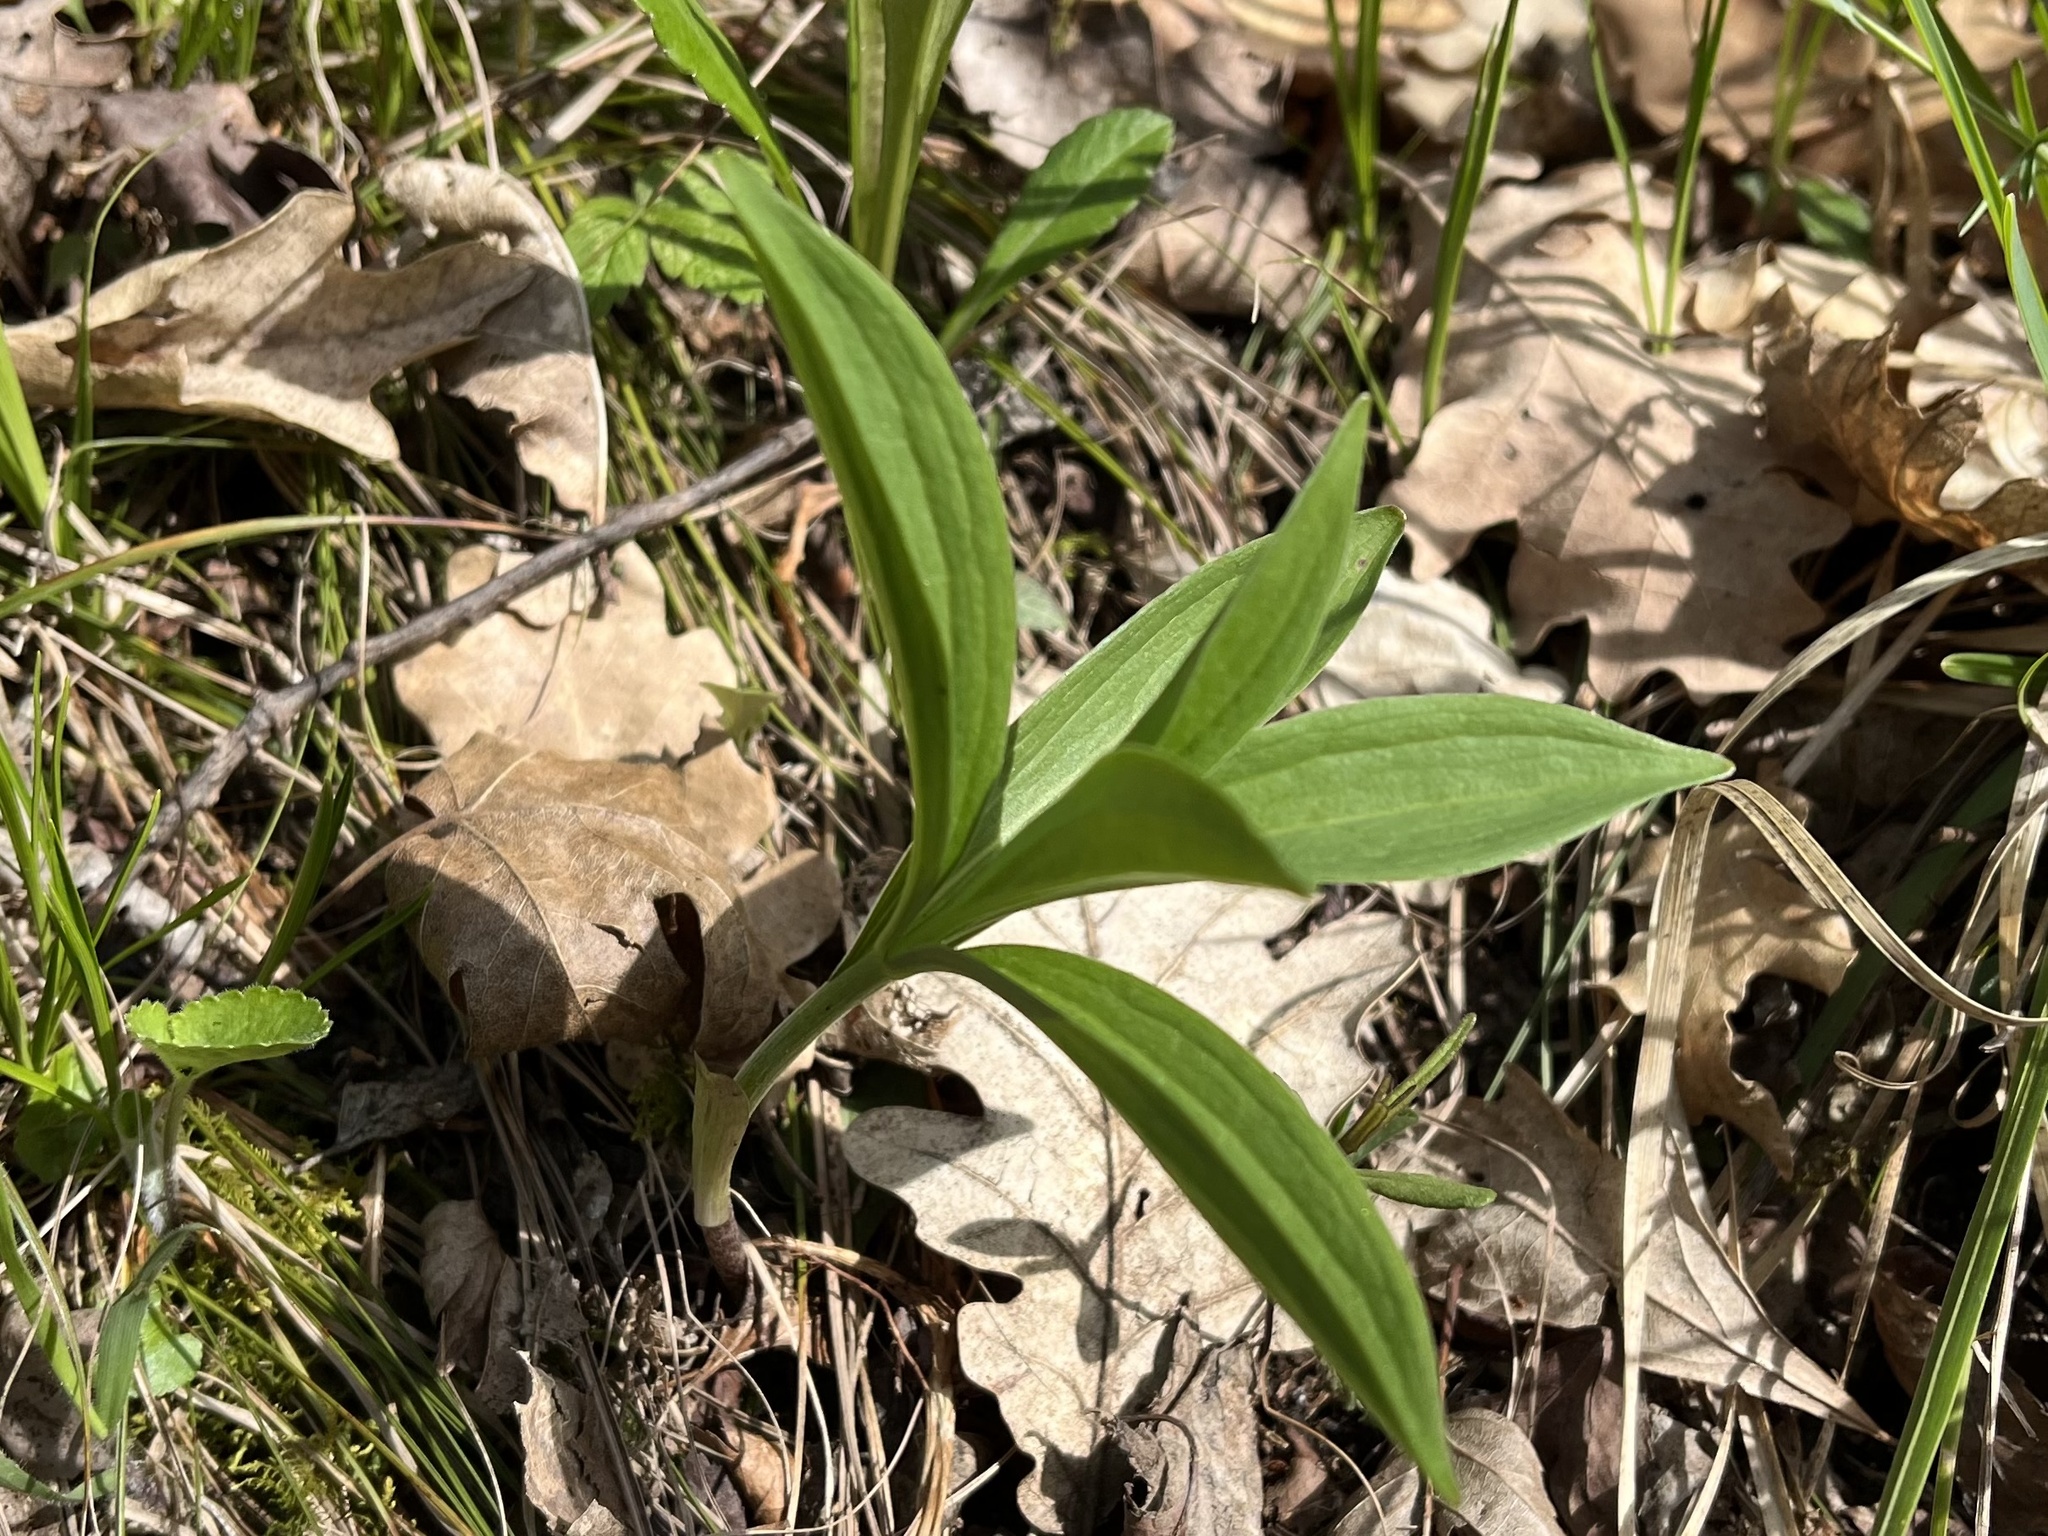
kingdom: Plantae
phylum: Tracheophyta
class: Liliopsida
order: Liliales
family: Liliaceae
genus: Lilium
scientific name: Lilium martagon
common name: Martagon lily
